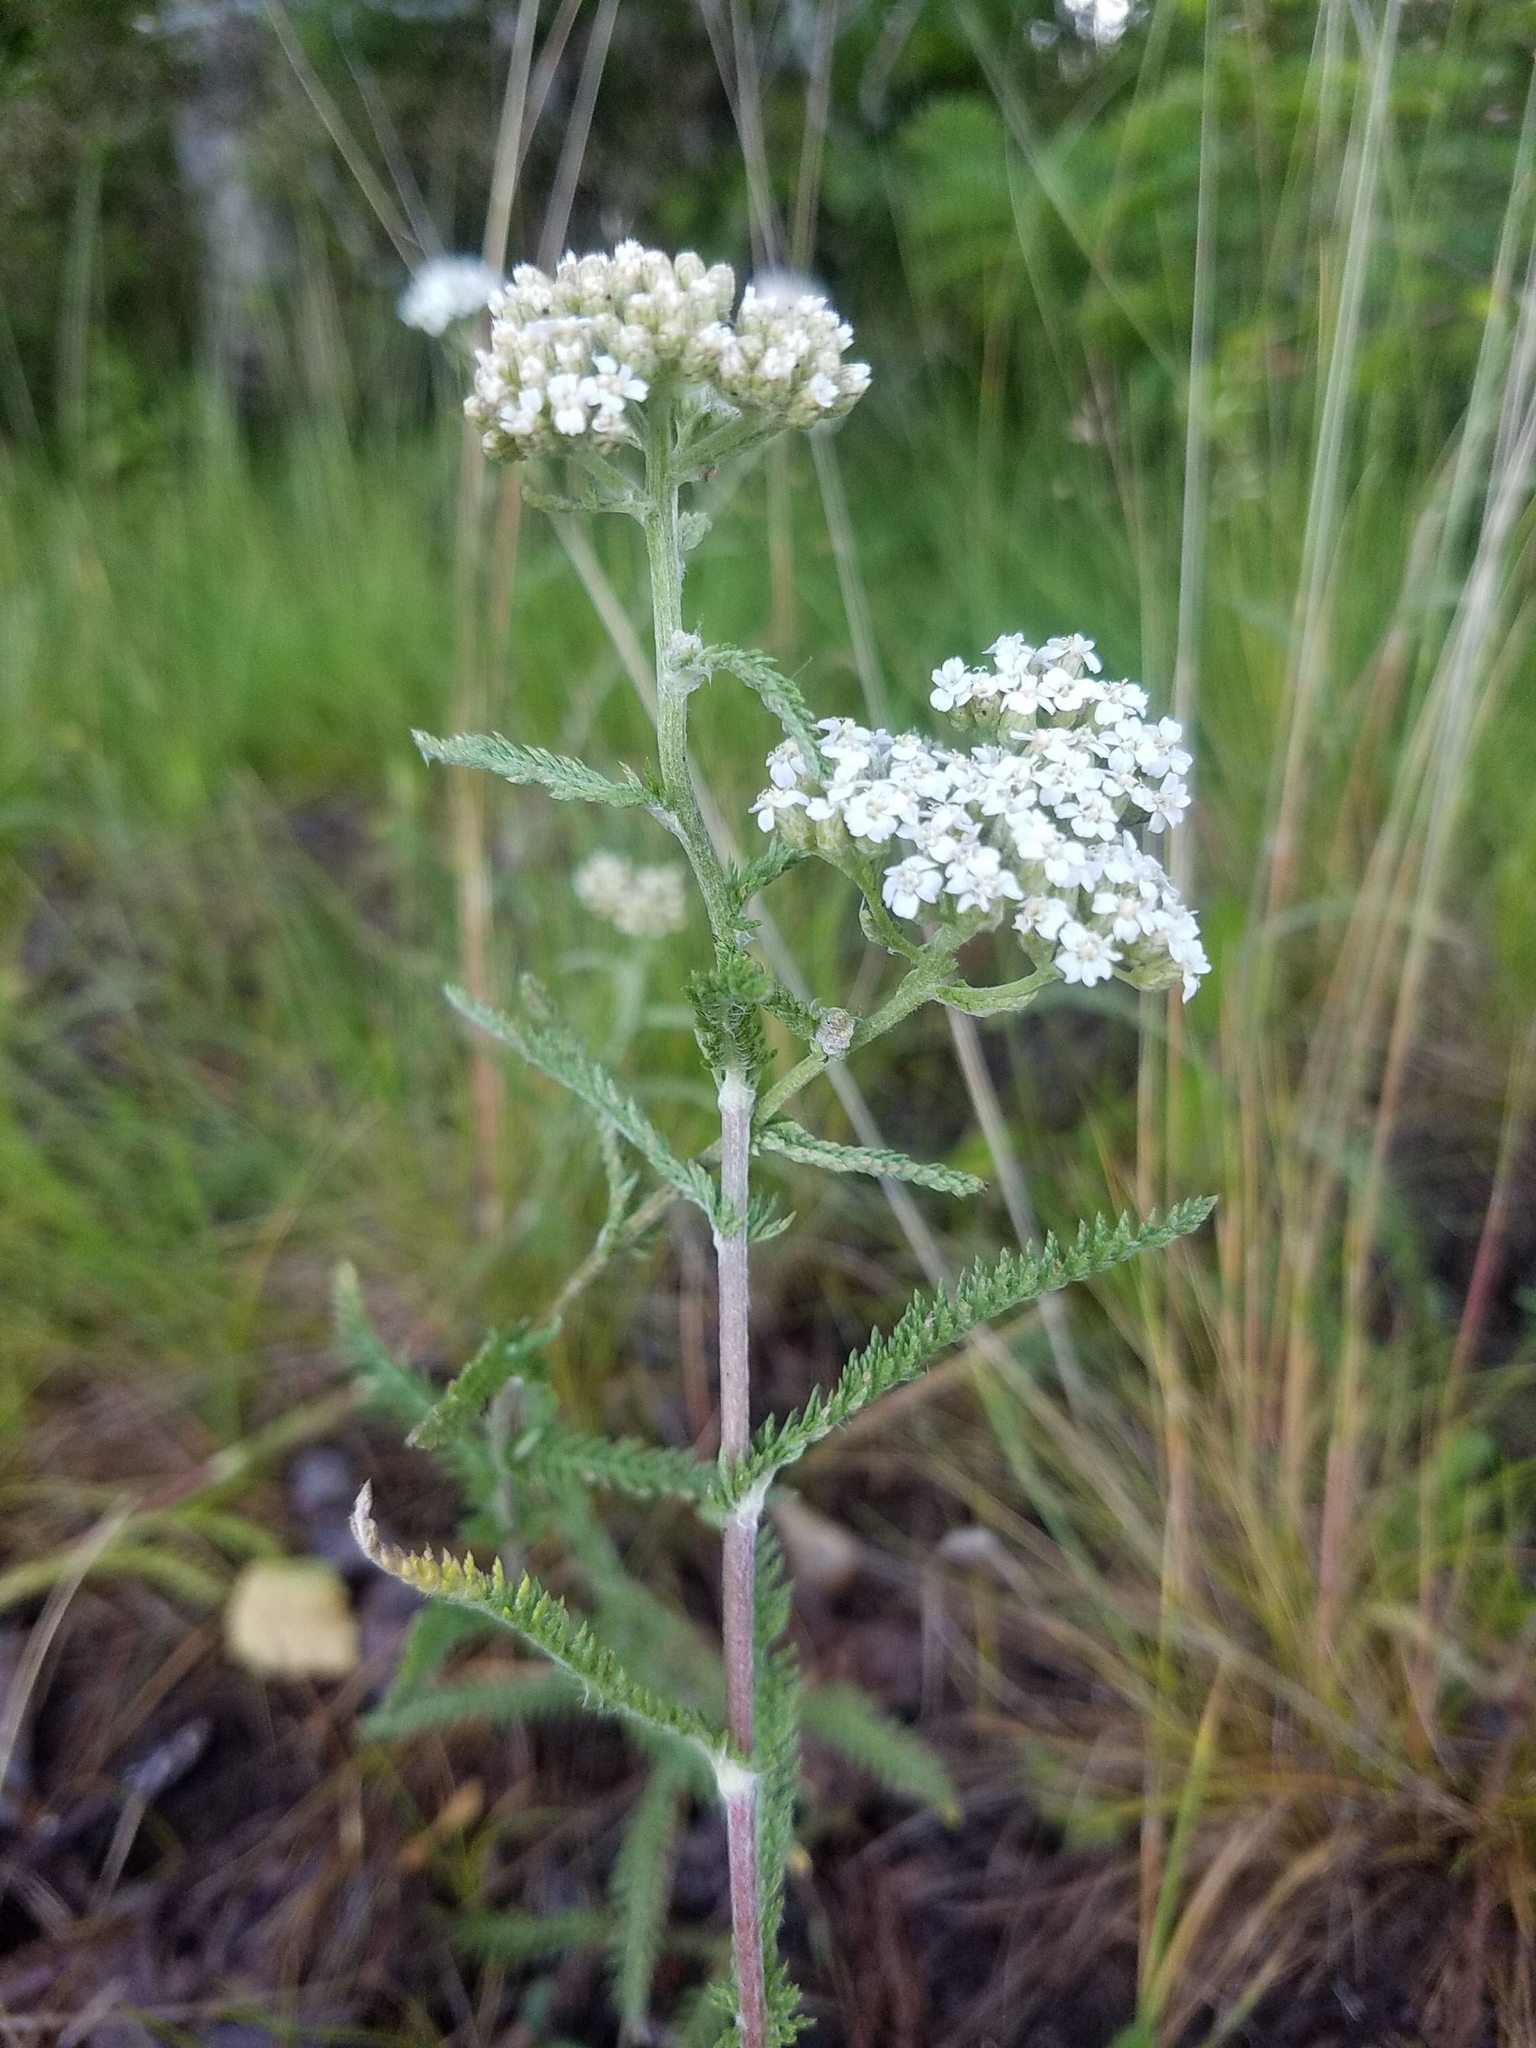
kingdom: Plantae
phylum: Tracheophyta
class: Magnoliopsida
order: Asterales
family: Asteraceae
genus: Achillea
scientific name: Achillea millefolium
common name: Yarrow
